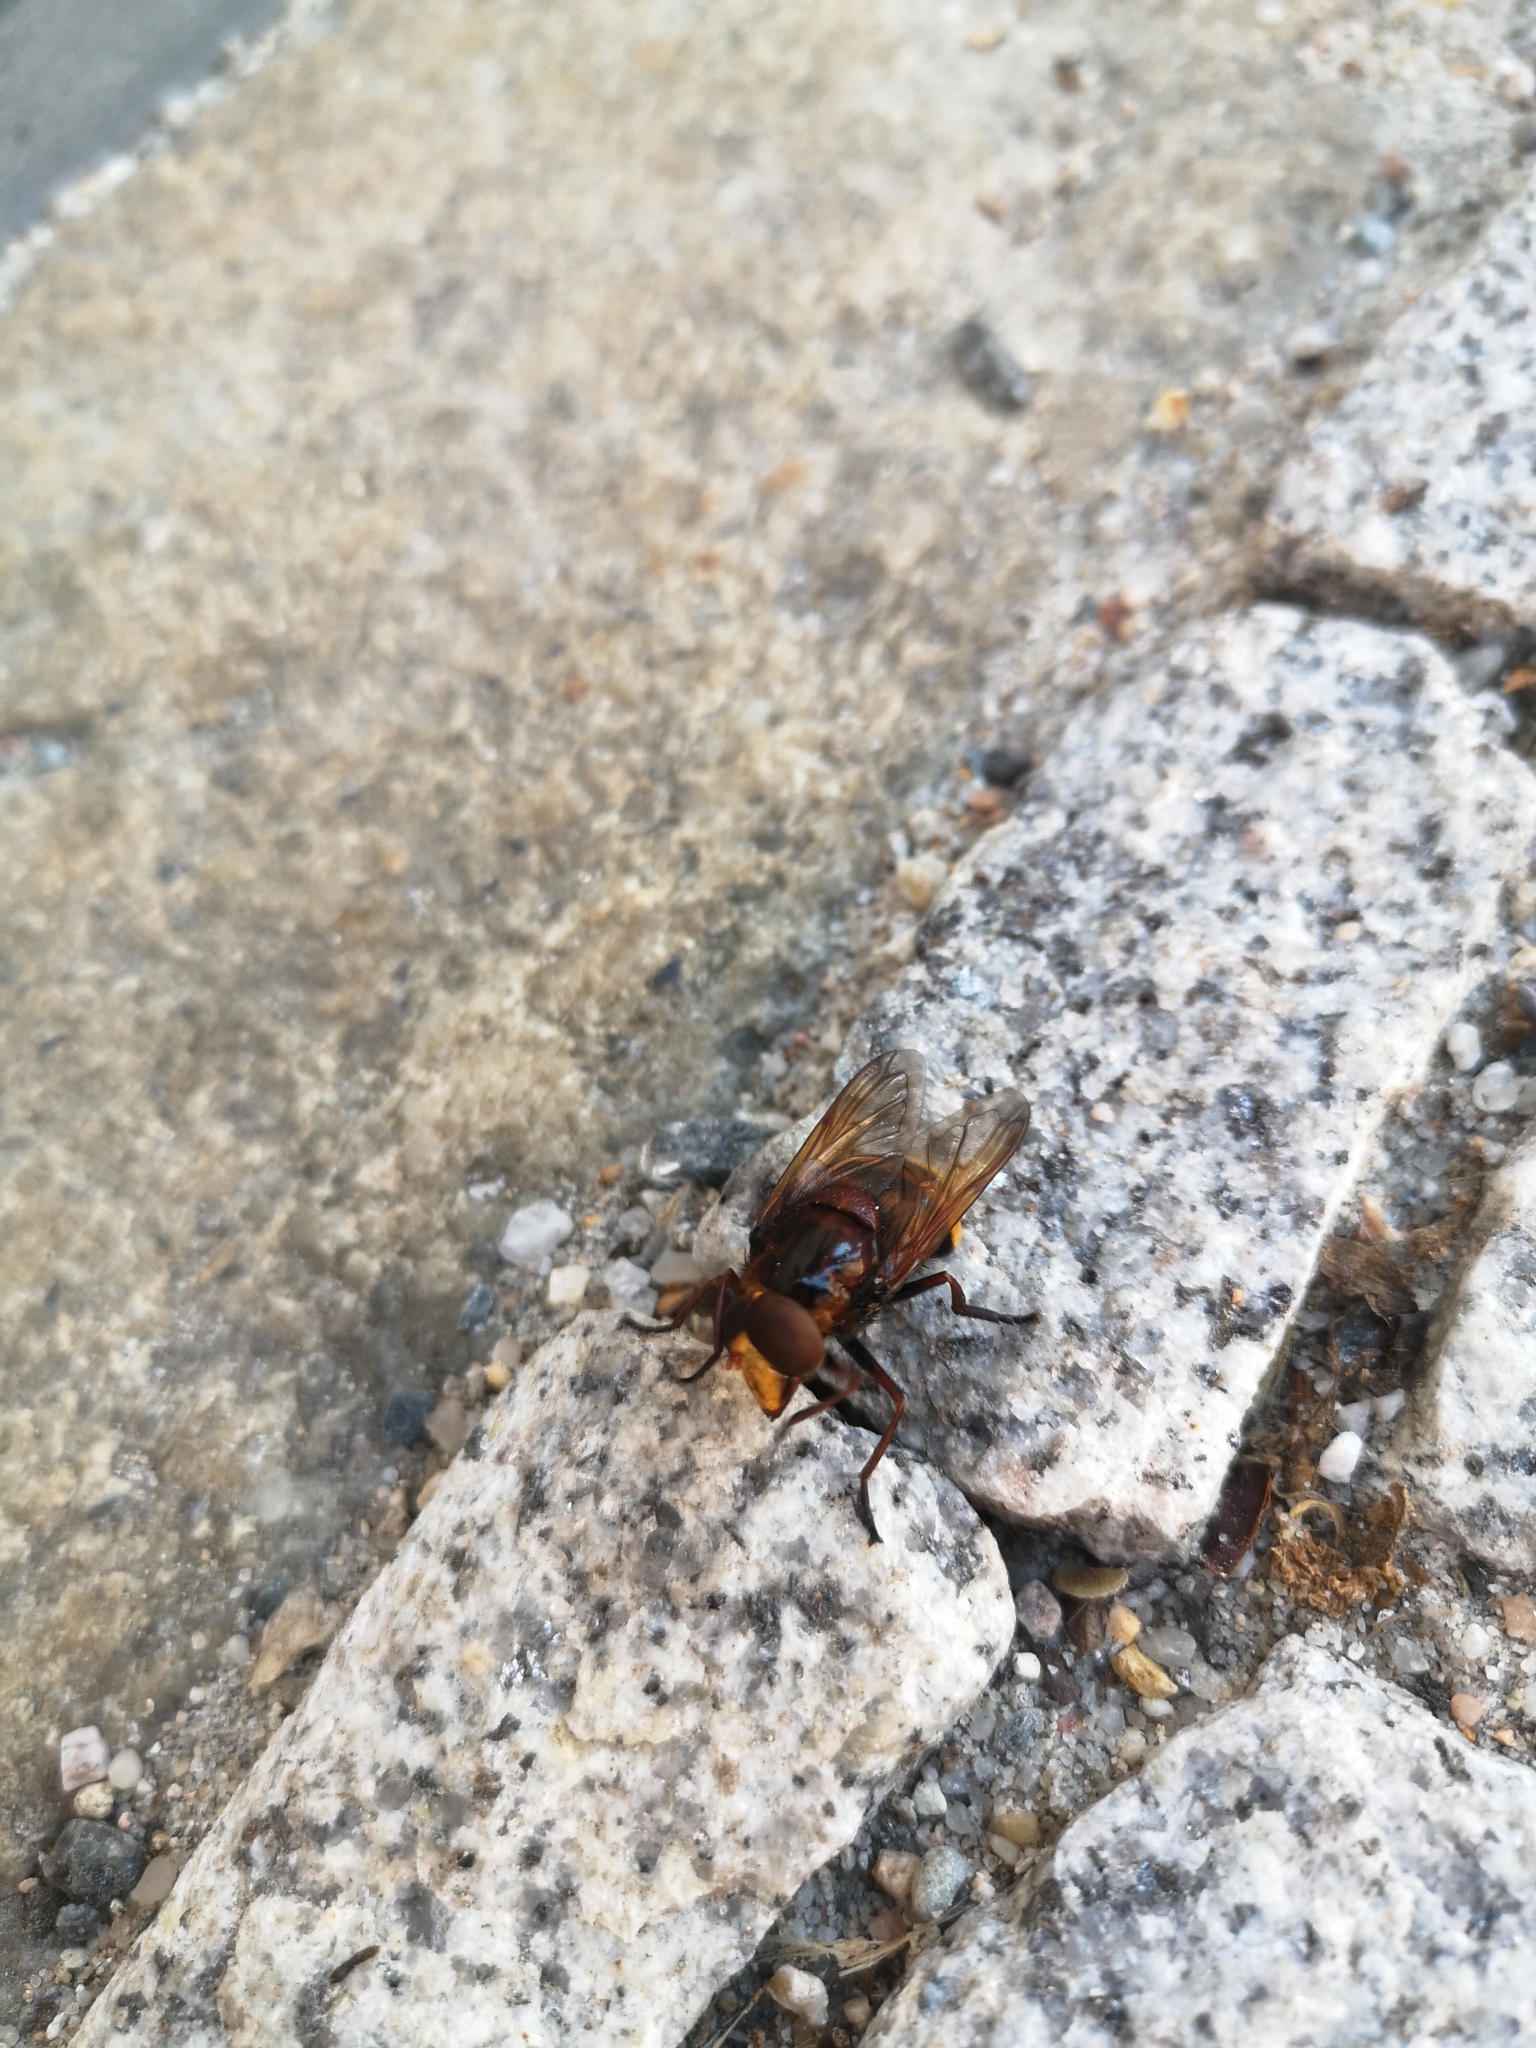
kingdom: Animalia
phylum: Arthropoda
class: Insecta
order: Diptera
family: Syrphidae
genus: Volucella
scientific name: Volucella zonaria
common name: Hornet hoverfly
